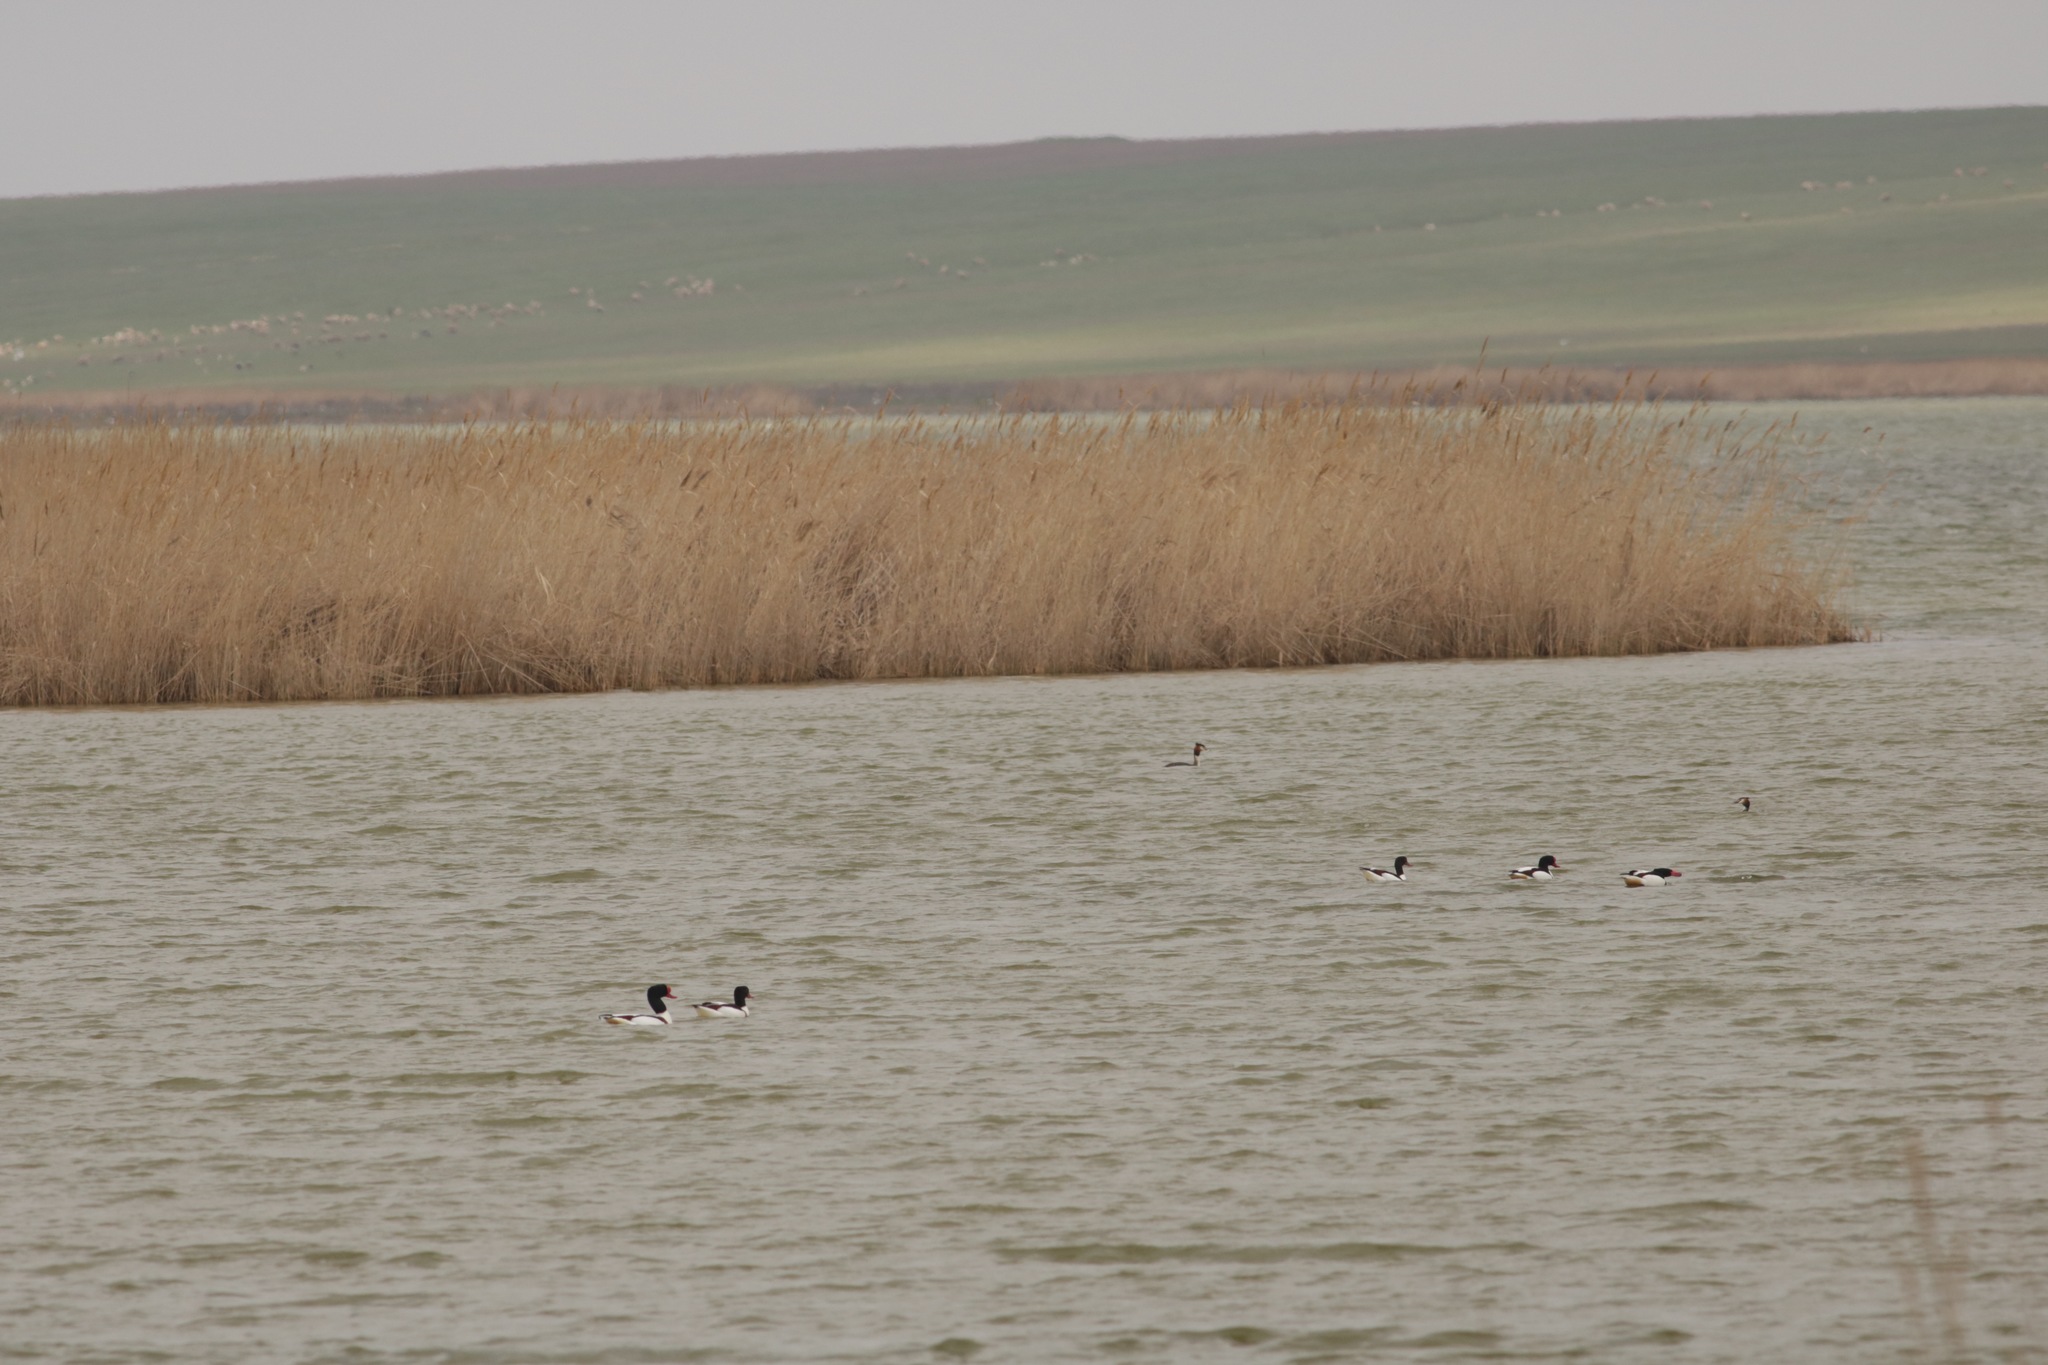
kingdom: Animalia
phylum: Chordata
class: Aves
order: Anseriformes
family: Anatidae
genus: Tadorna
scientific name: Tadorna tadorna
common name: Common shelduck
